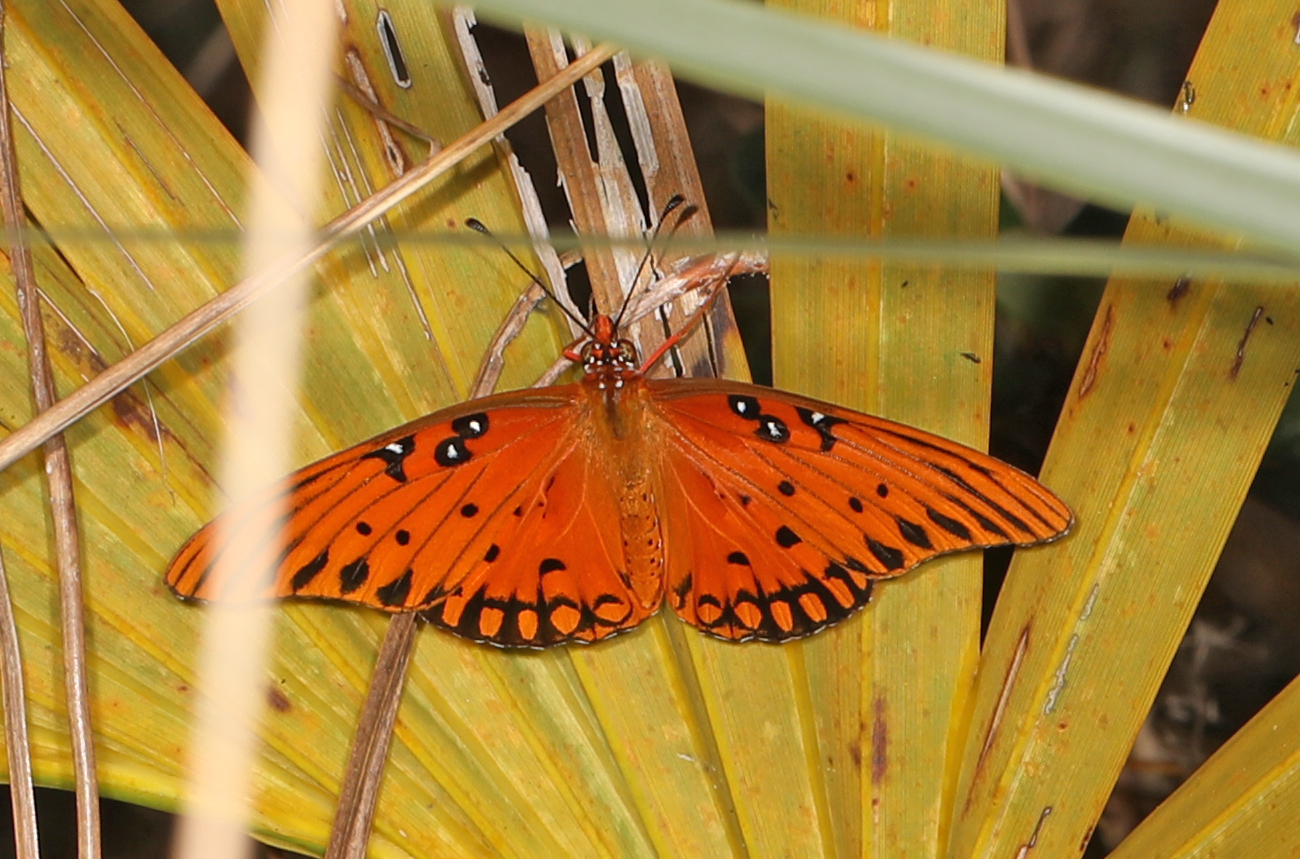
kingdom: Animalia
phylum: Arthropoda
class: Insecta
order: Lepidoptera
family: Nymphalidae
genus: Dione
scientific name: Dione vanillae
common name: Gulf fritillary
